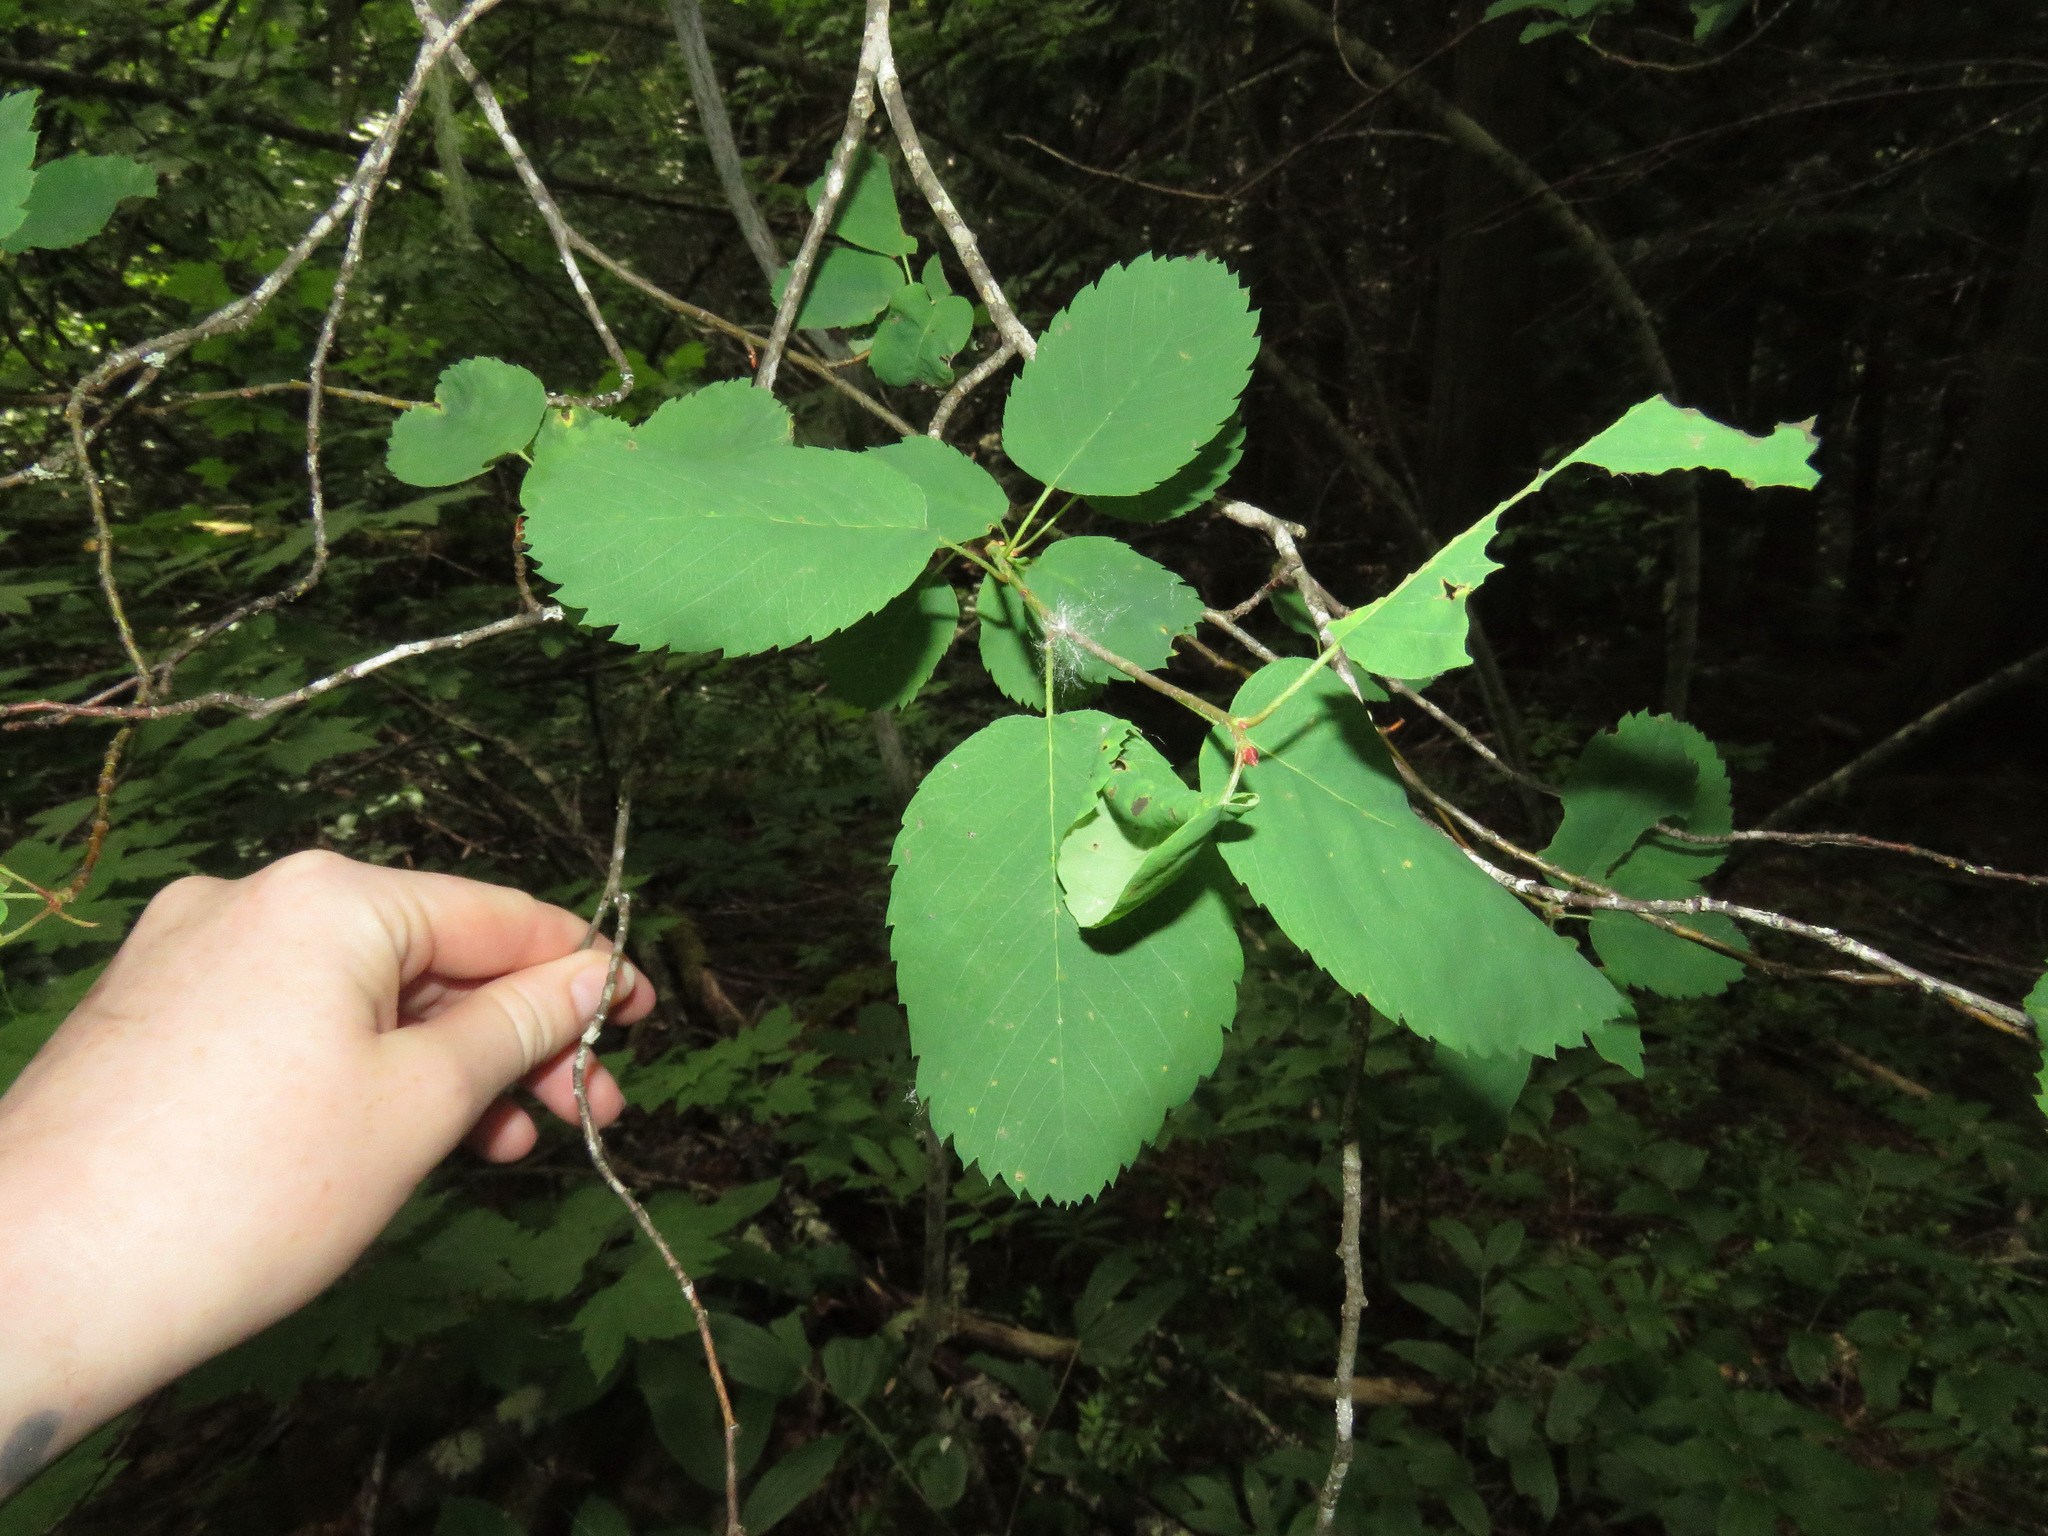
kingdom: Plantae
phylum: Tracheophyta
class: Magnoliopsida
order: Rosales
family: Rosaceae
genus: Amelanchier
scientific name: Amelanchier alnifolia
